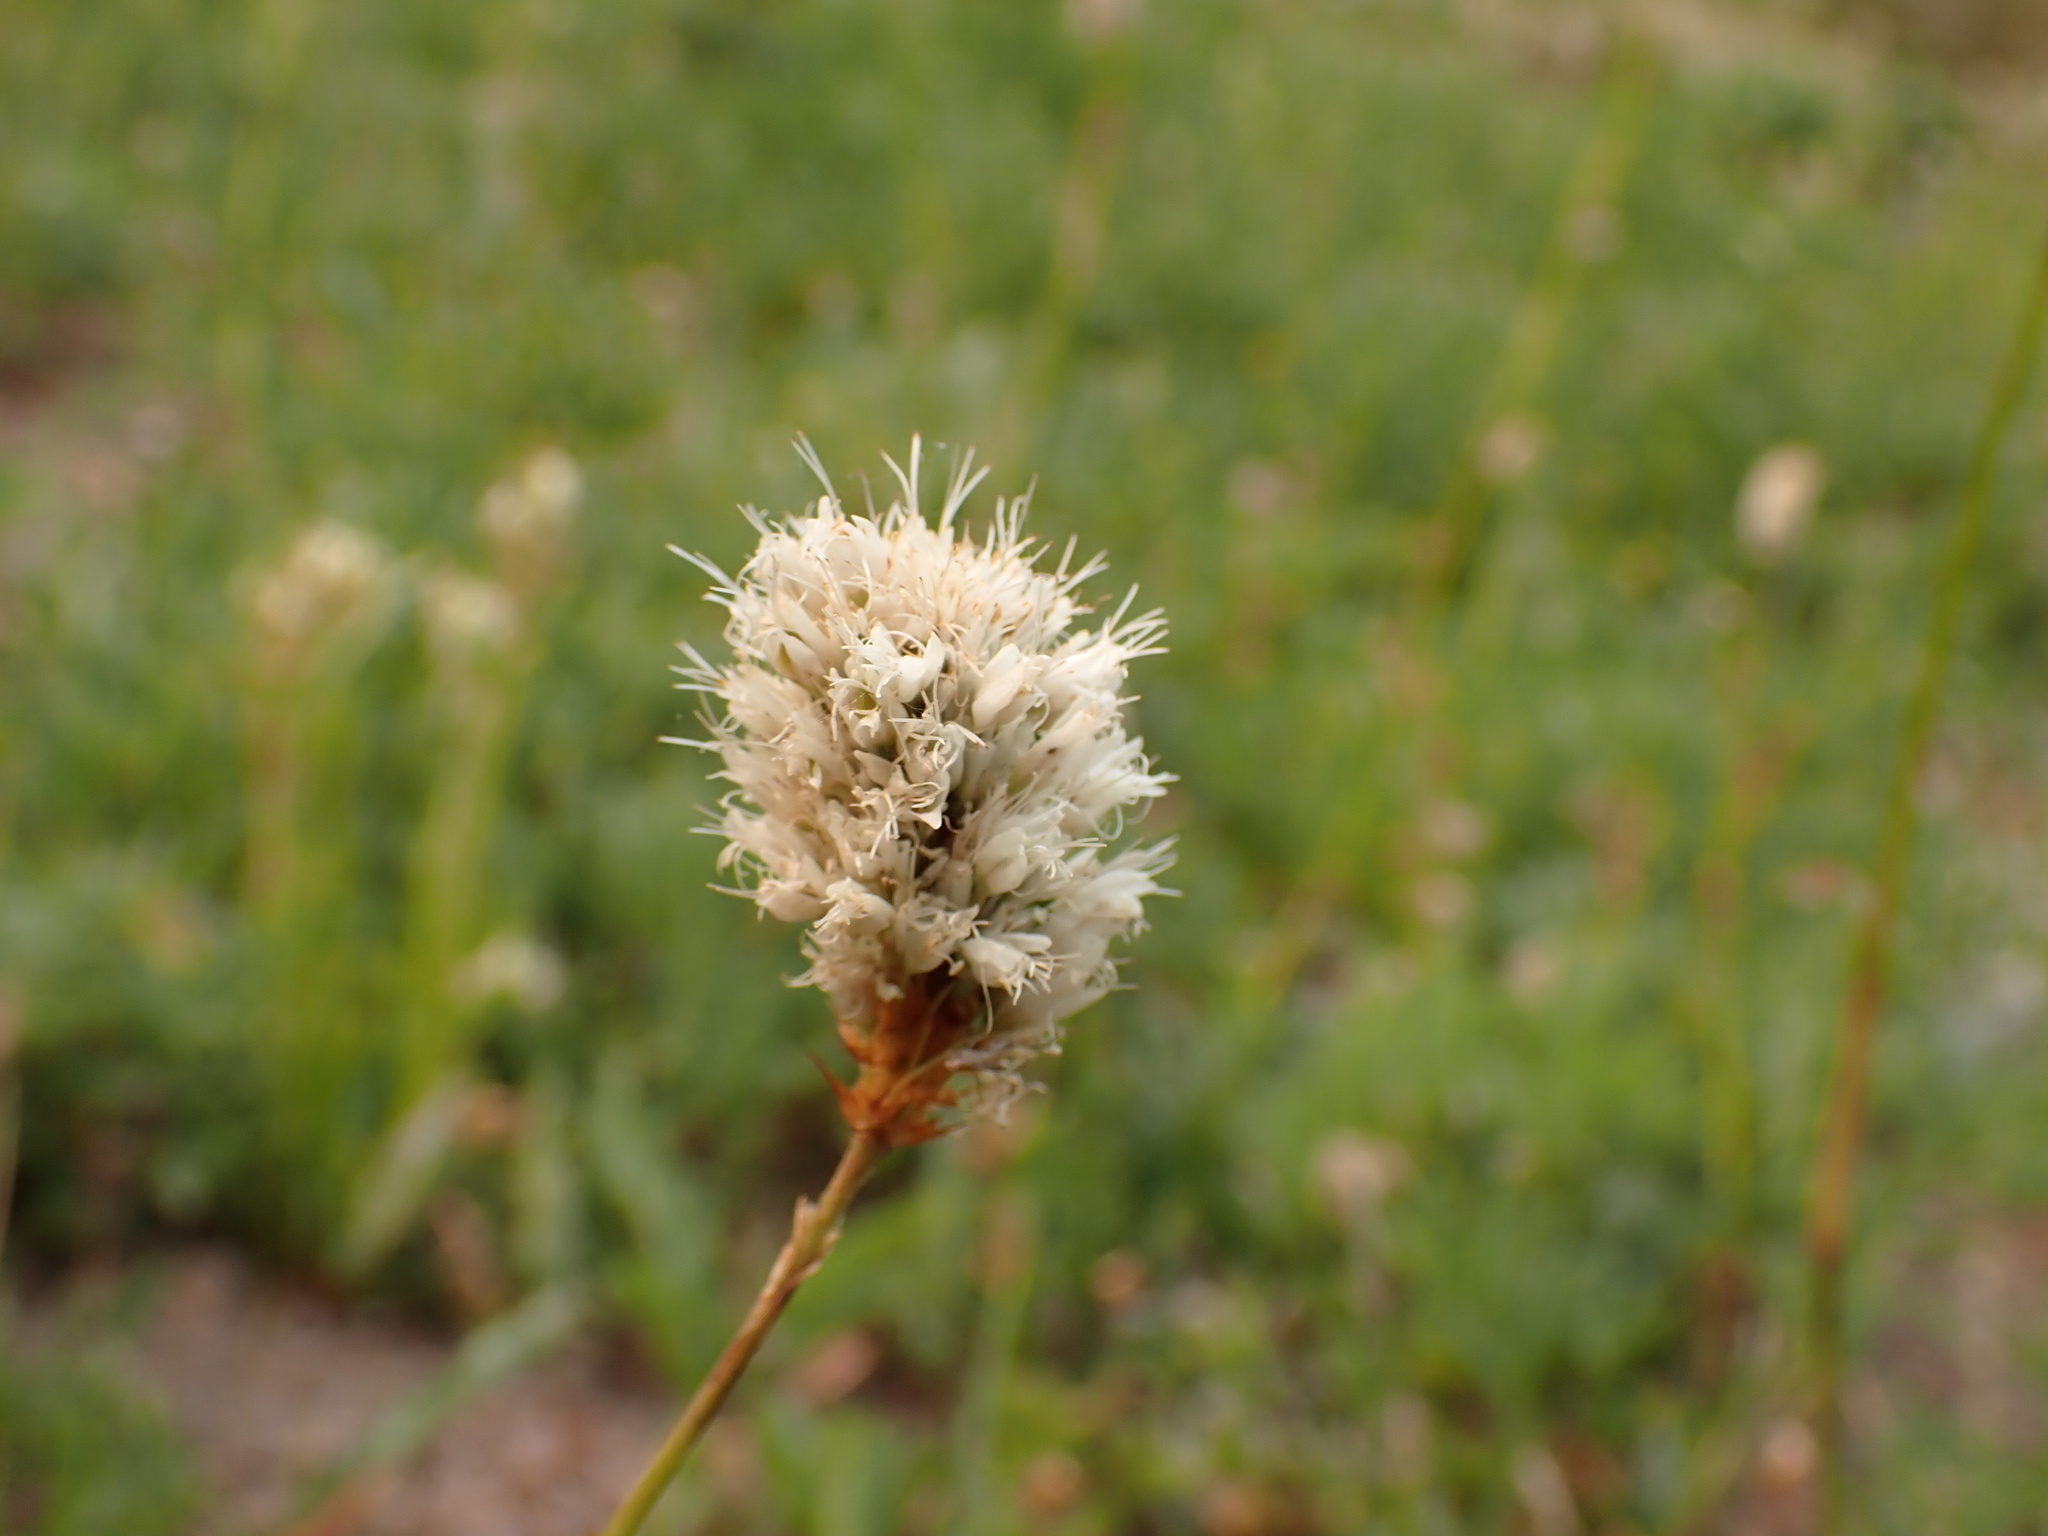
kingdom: Plantae
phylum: Tracheophyta
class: Magnoliopsida
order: Caryophyllales
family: Polygonaceae
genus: Bistorta
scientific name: Bistorta bistortoides
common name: American bistort
